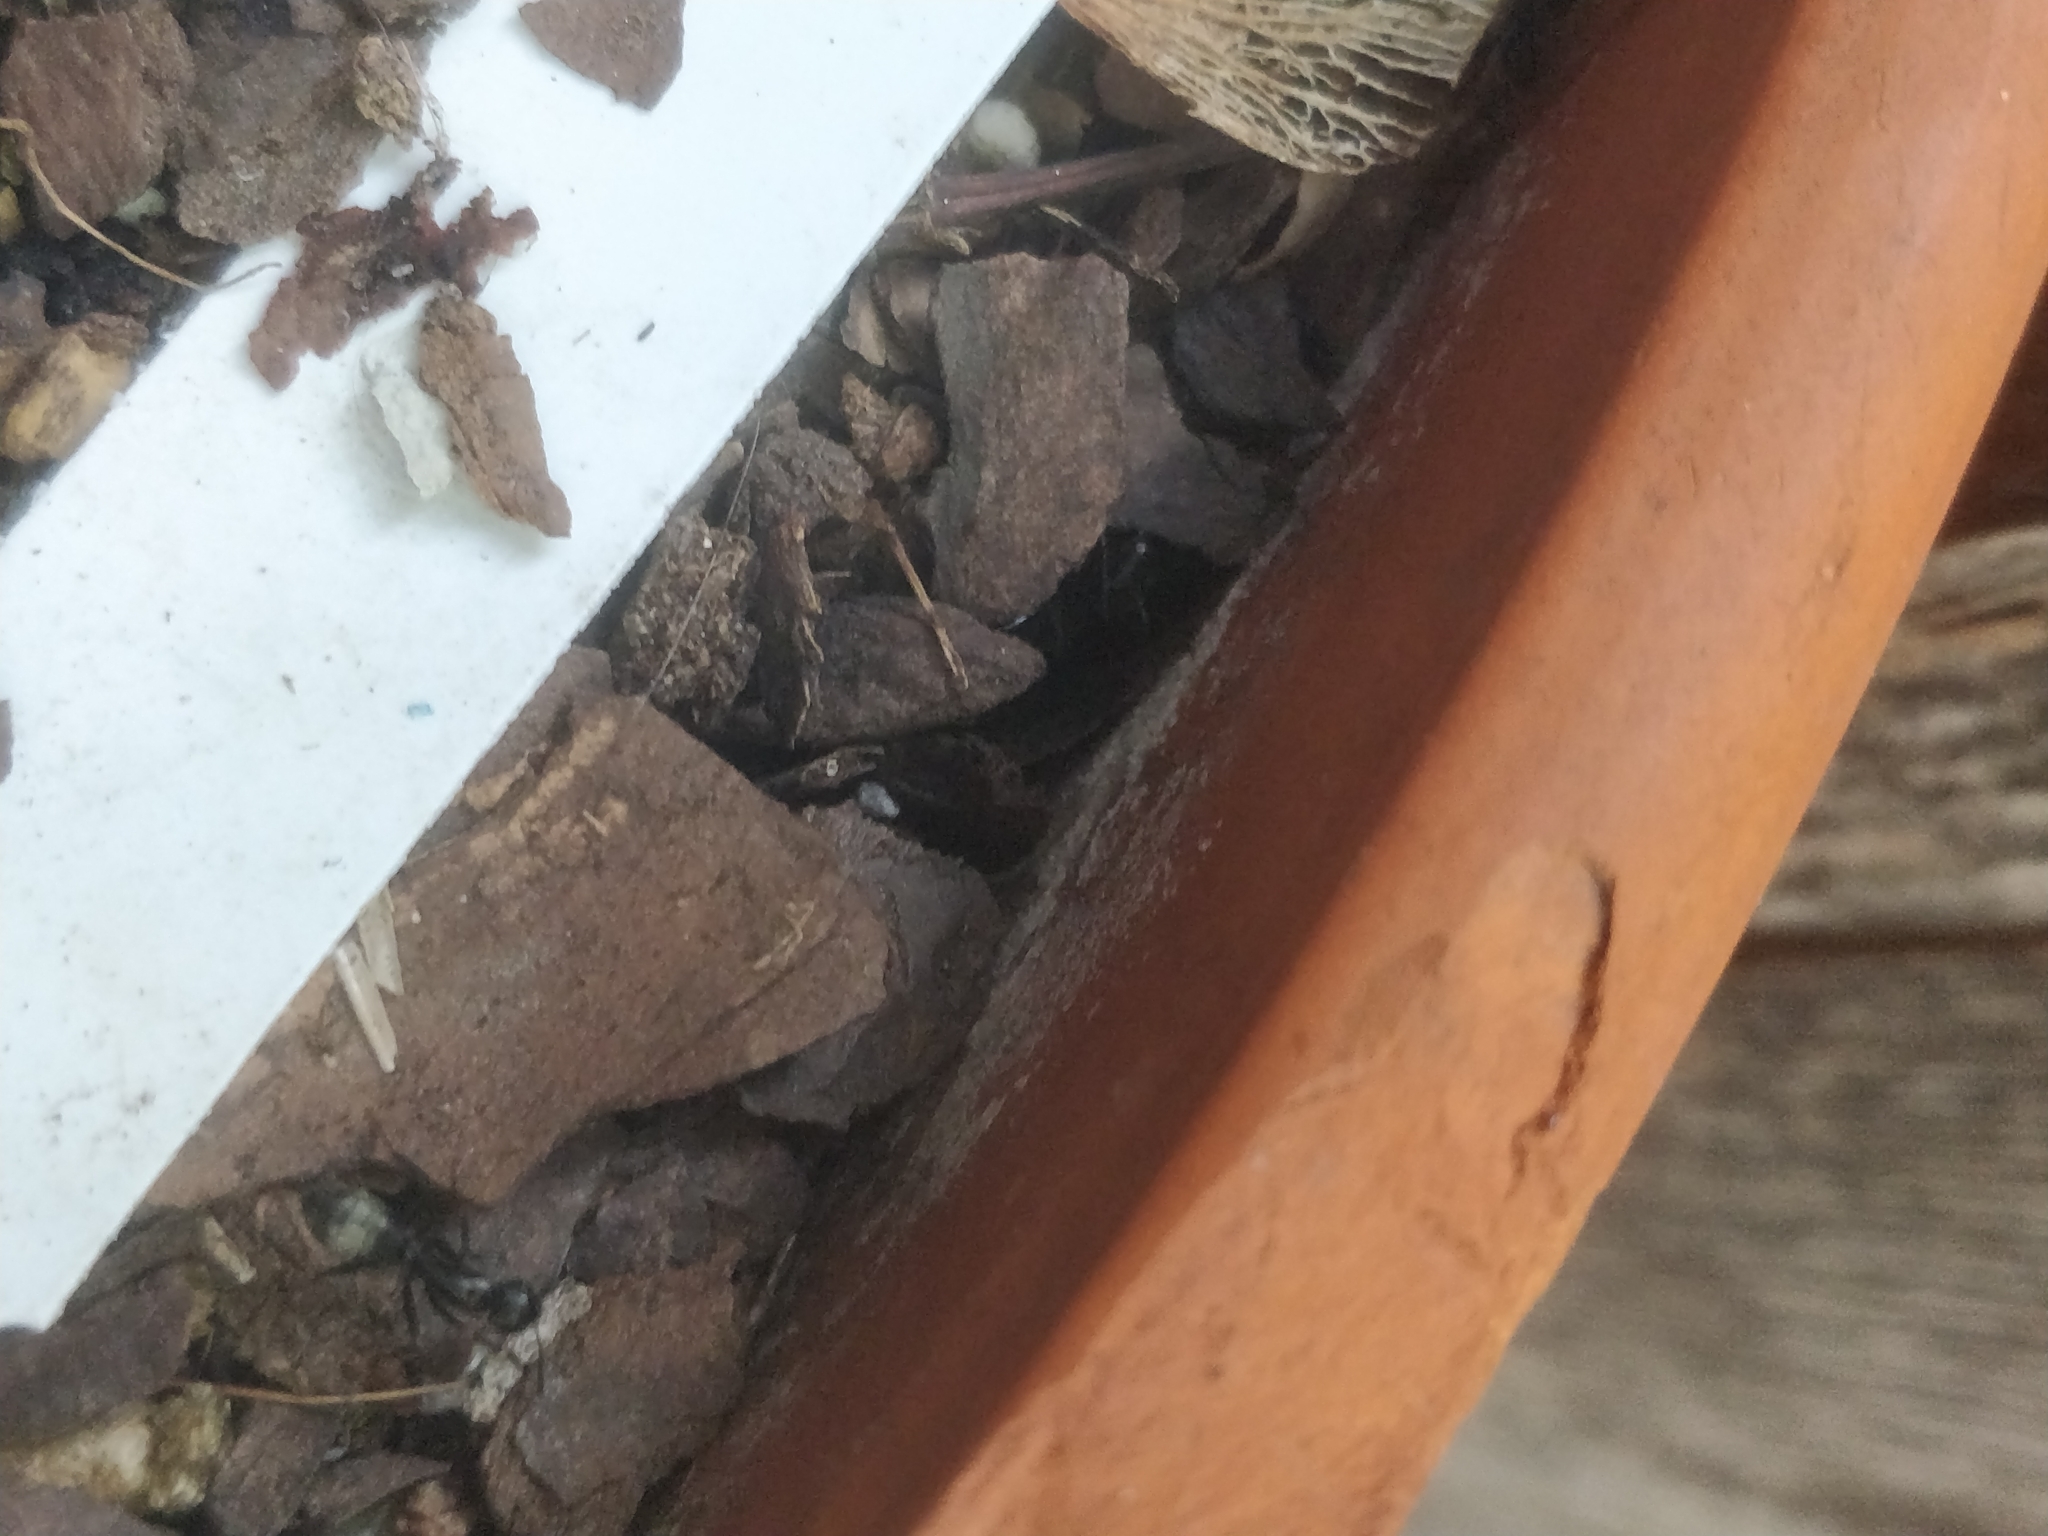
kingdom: Animalia
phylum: Arthropoda
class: Insecta
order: Hymenoptera
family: Formicidae
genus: Camponotus
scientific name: Camponotus pennsylvanicus
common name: Black carpenter ant
